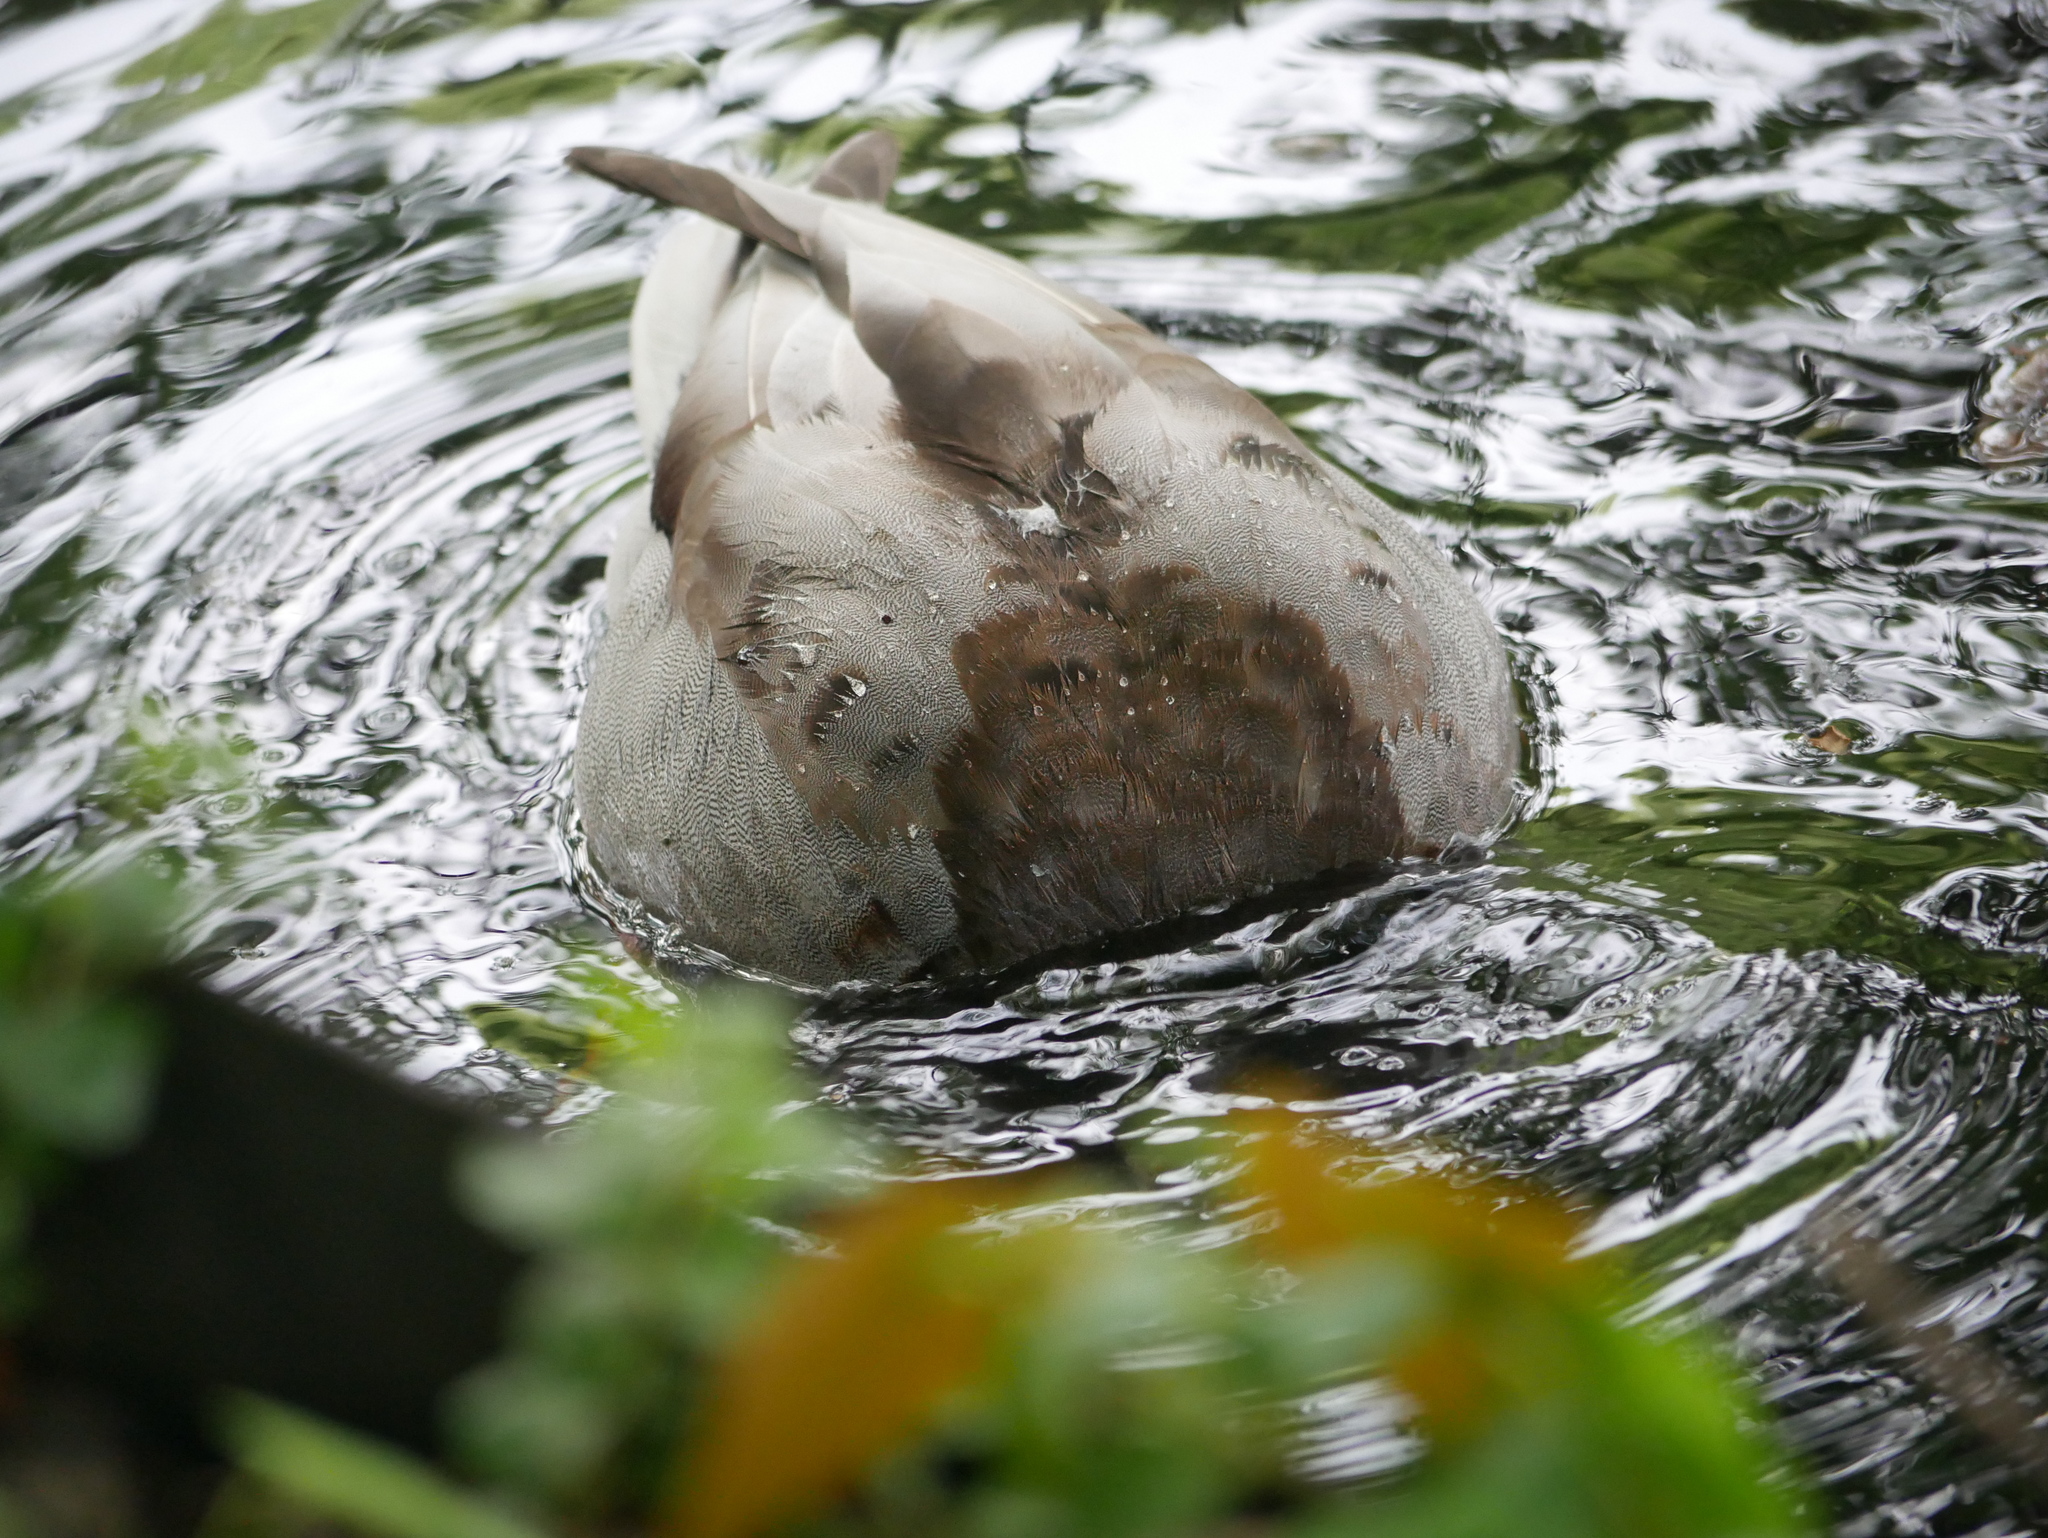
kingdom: Animalia
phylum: Chordata
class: Aves
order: Anseriformes
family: Anatidae
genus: Anas
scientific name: Anas platyrhynchos
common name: Mallard
